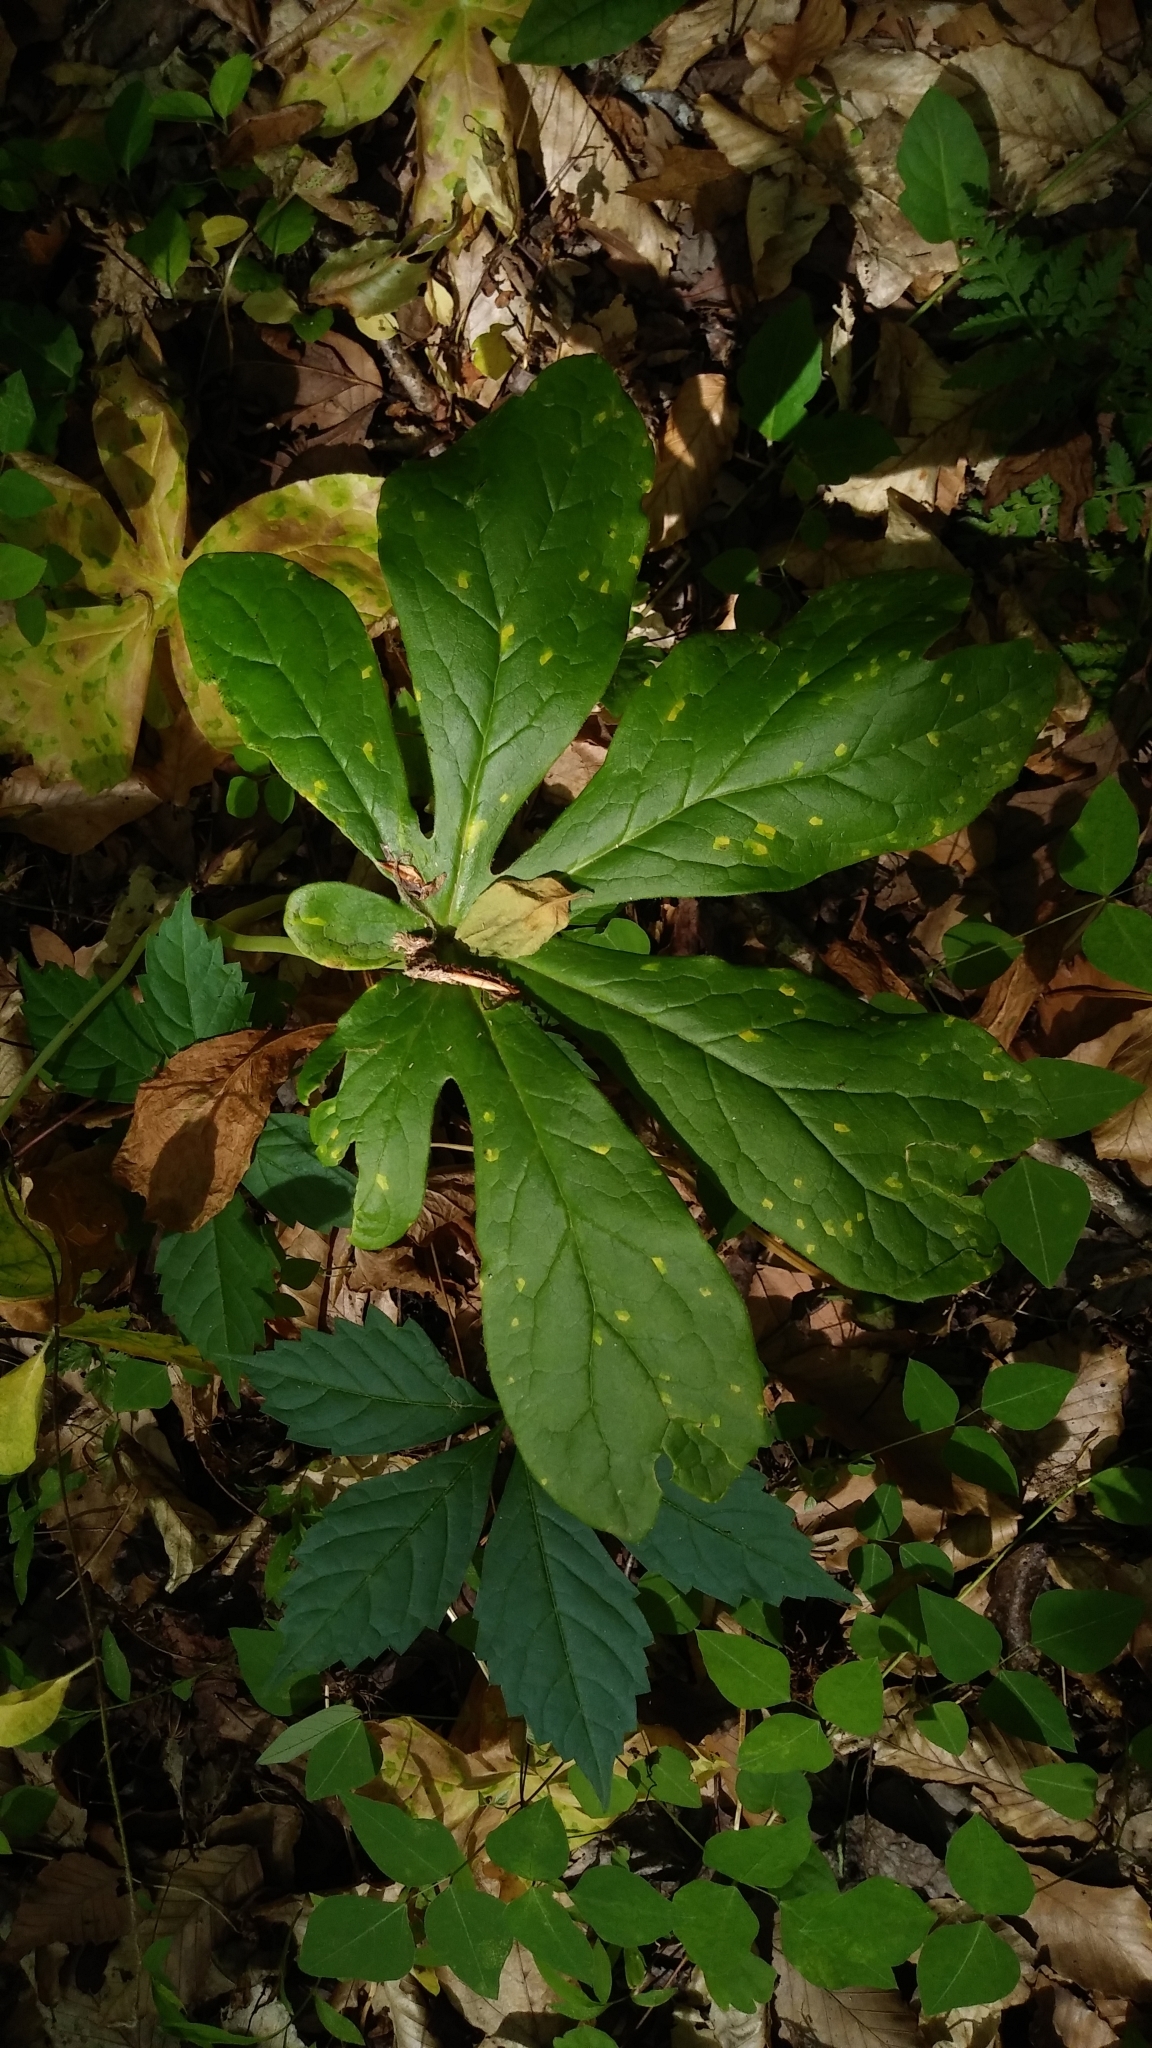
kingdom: Plantae
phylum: Tracheophyta
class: Magnoliopsida
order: Ranunculales
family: Berberidaceae
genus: Podophyllum
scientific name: Podophyllum peltatum
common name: Wild mandrake
